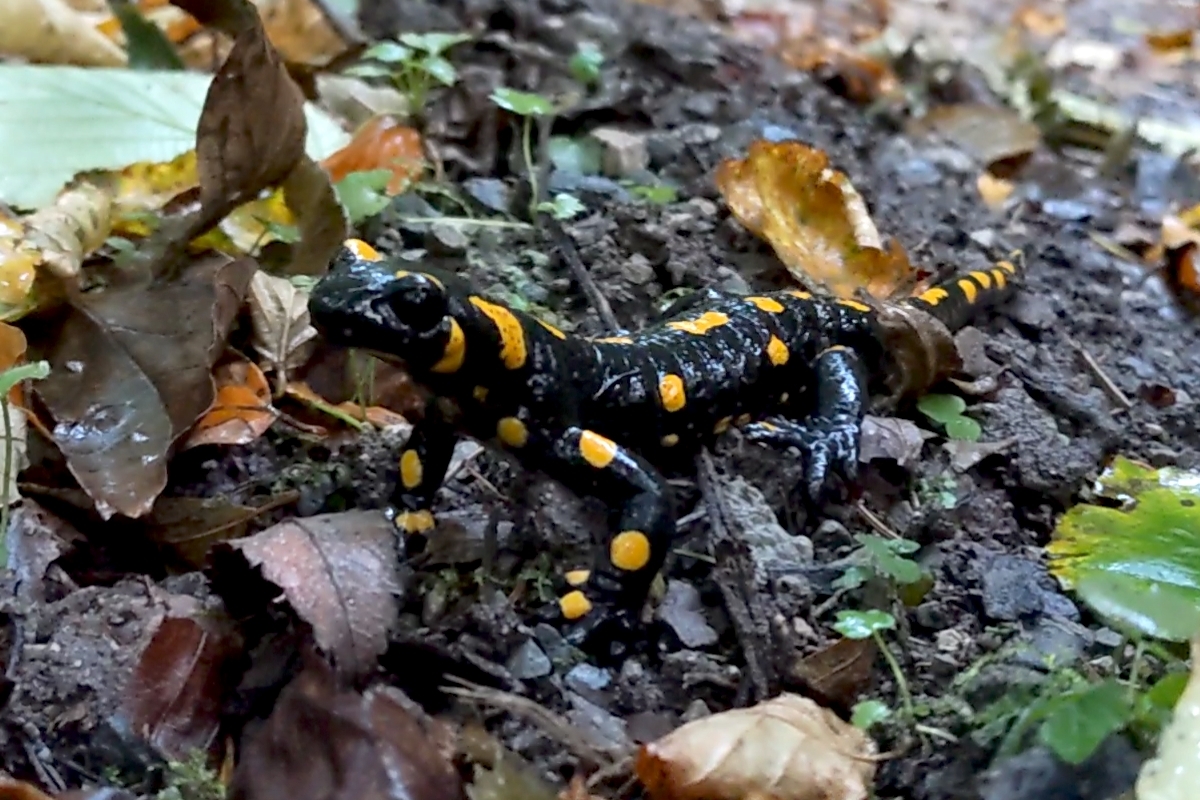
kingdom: Animalia
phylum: Chordata
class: Amphibia
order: Caudata
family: Salamandridae
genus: Salamandra
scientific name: Salamandra salamandra
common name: Fire salamander
